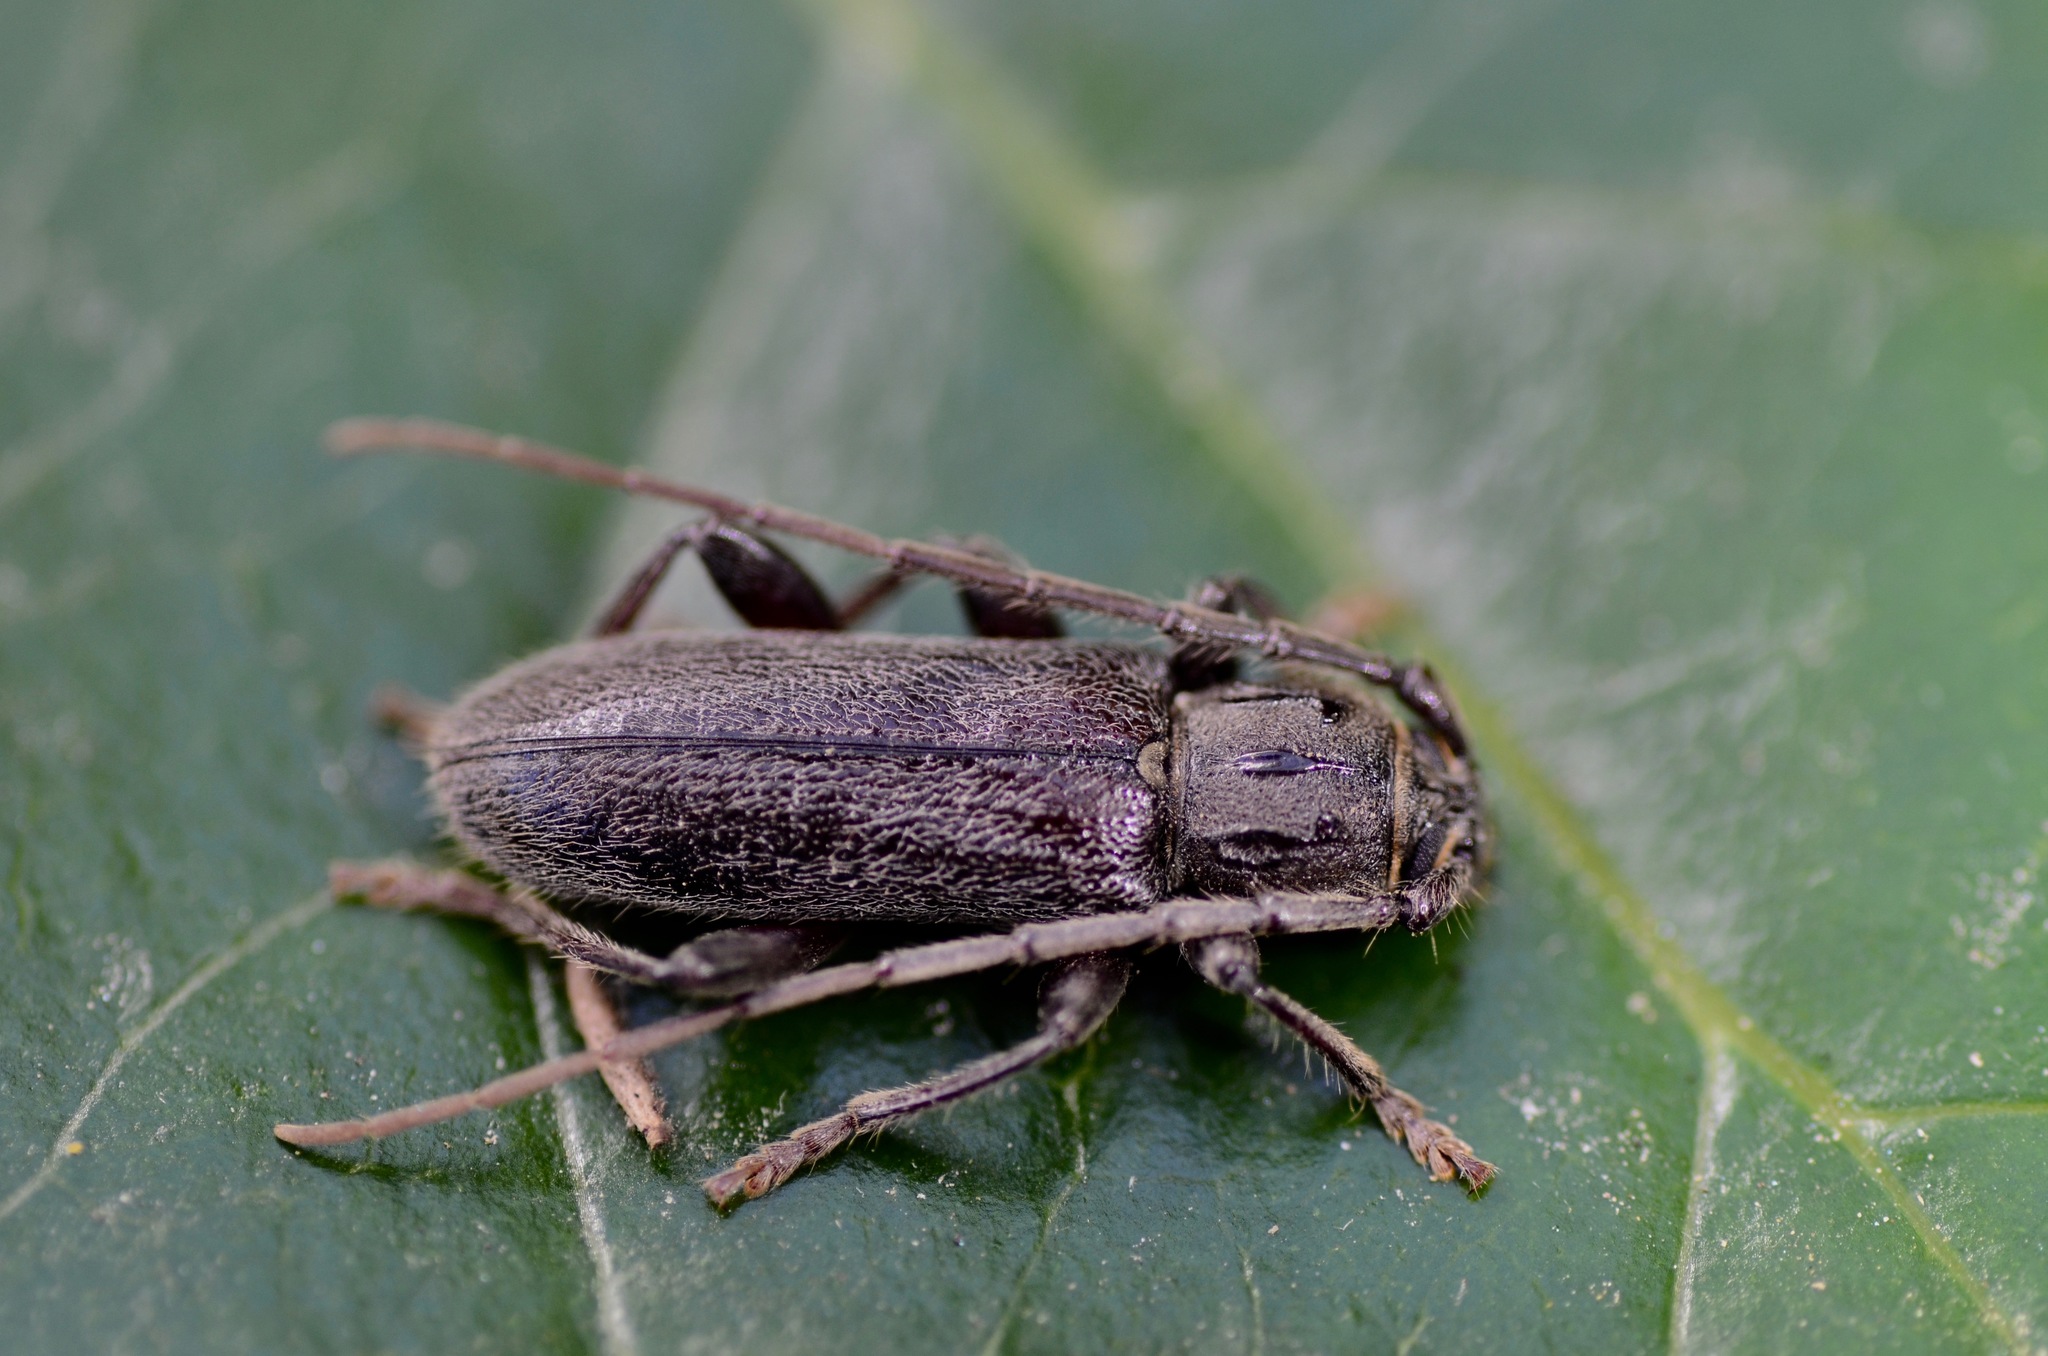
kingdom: Animalia
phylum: Arthropoda
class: Insecta
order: Coleoptera
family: Cerambycidae
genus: Liogramma
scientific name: Liogramma zelandica
